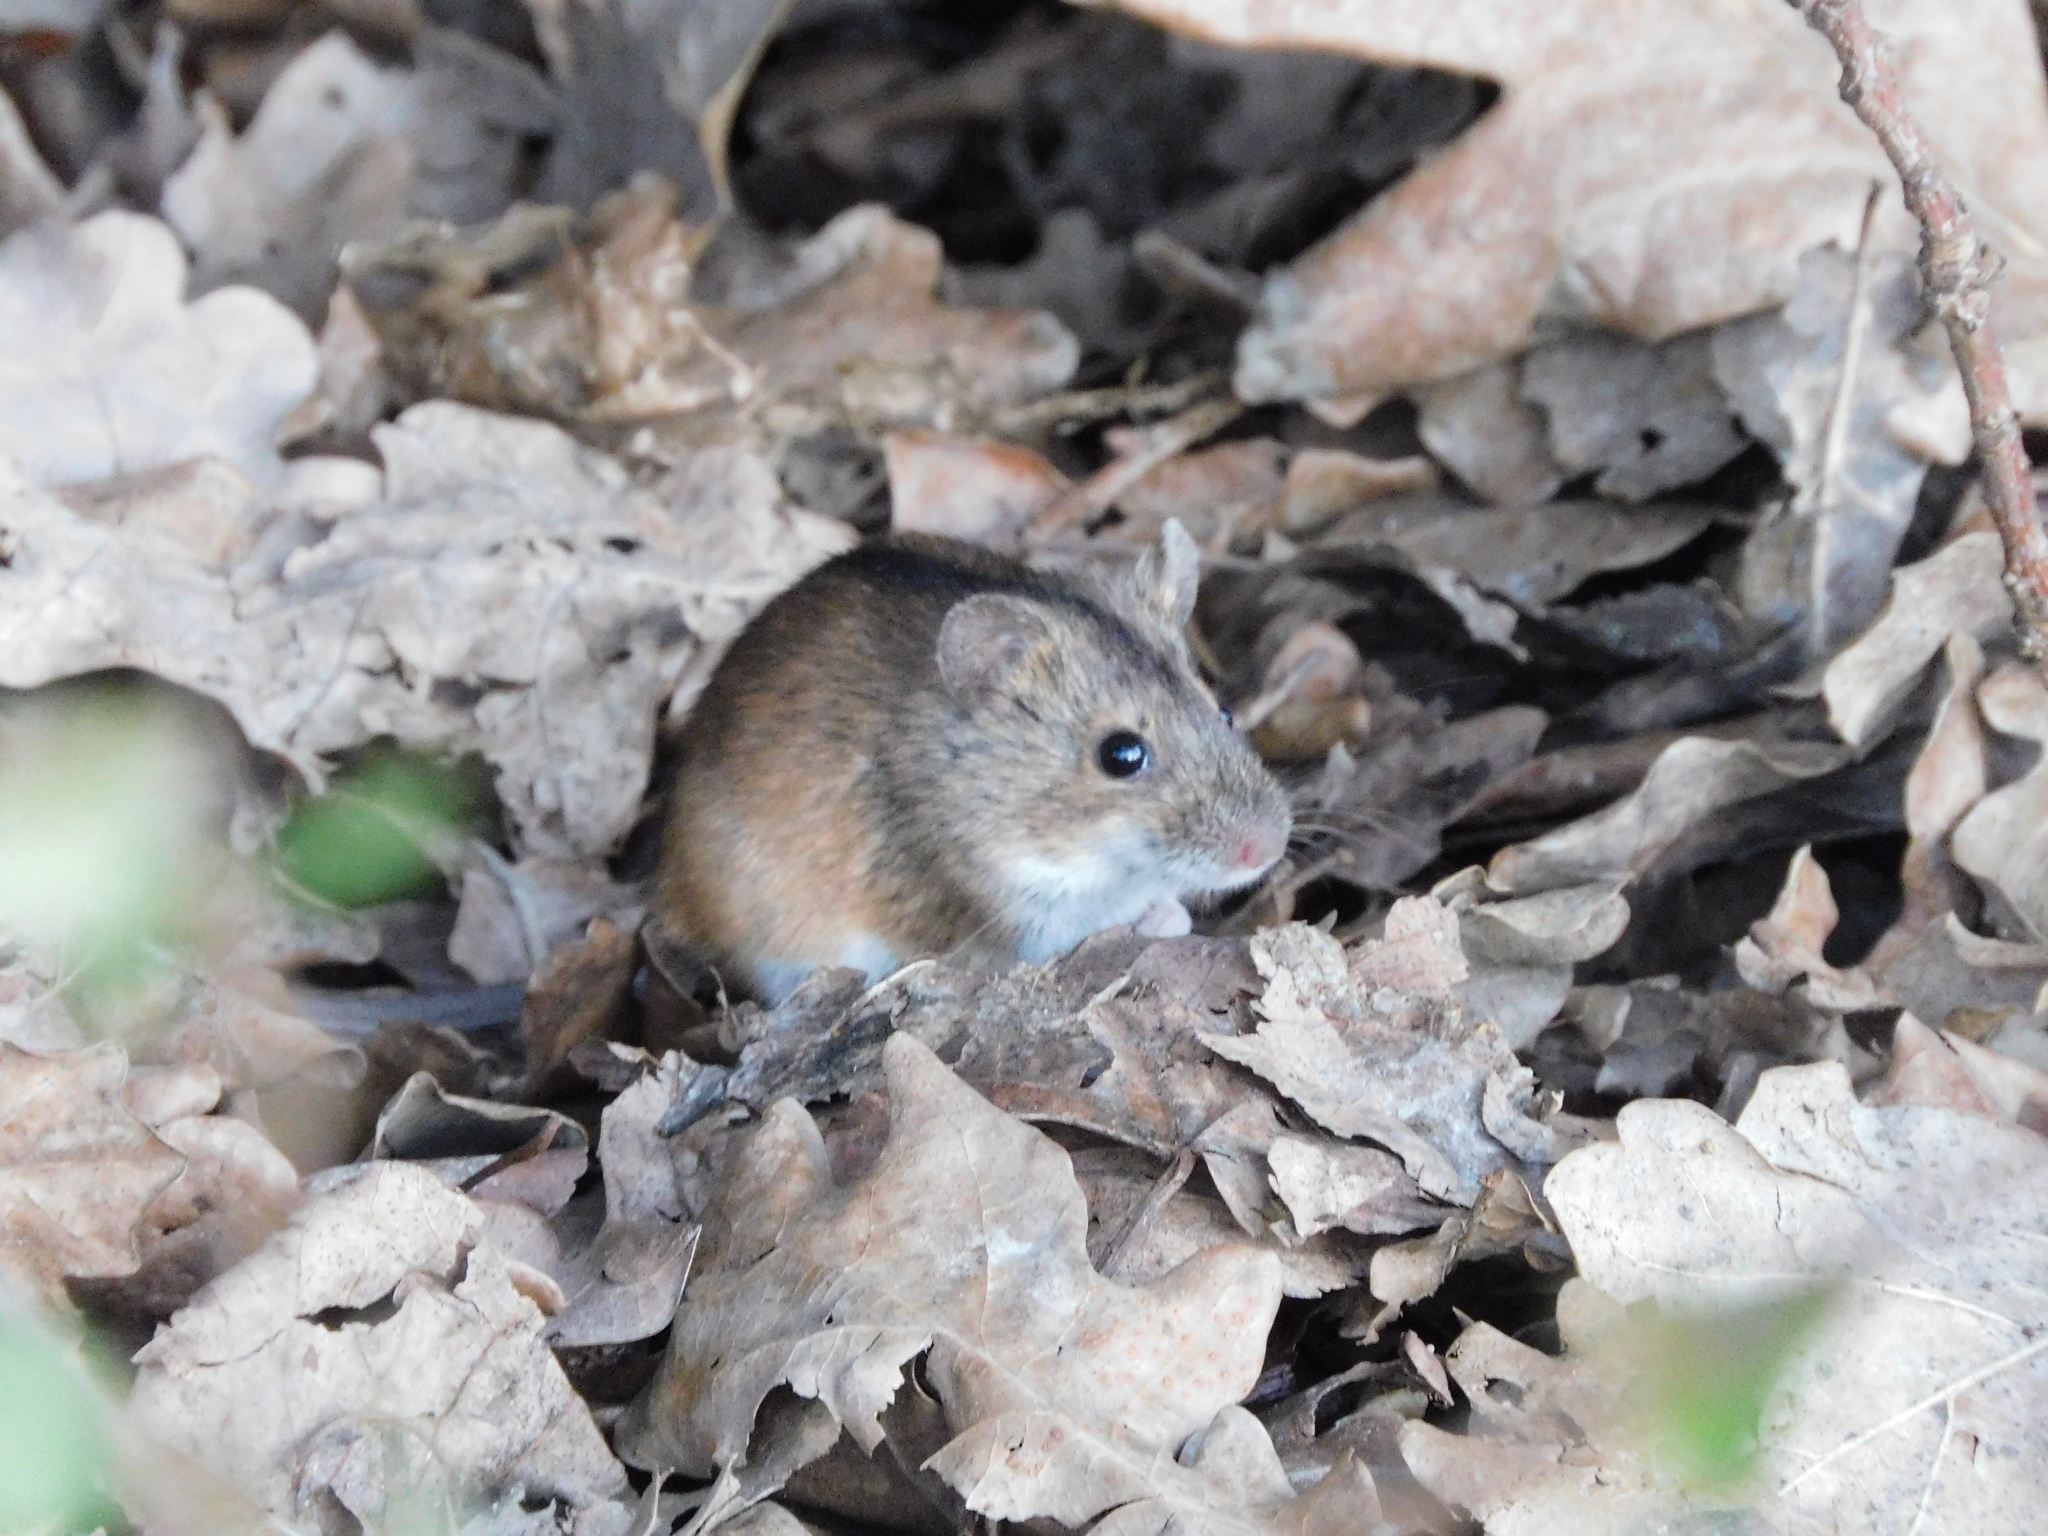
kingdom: Animalia
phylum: Chordata
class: Mammalia
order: Rodentia
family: Muridae
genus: Apodemus
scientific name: Apodemus agrarius
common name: Striped field mouse
